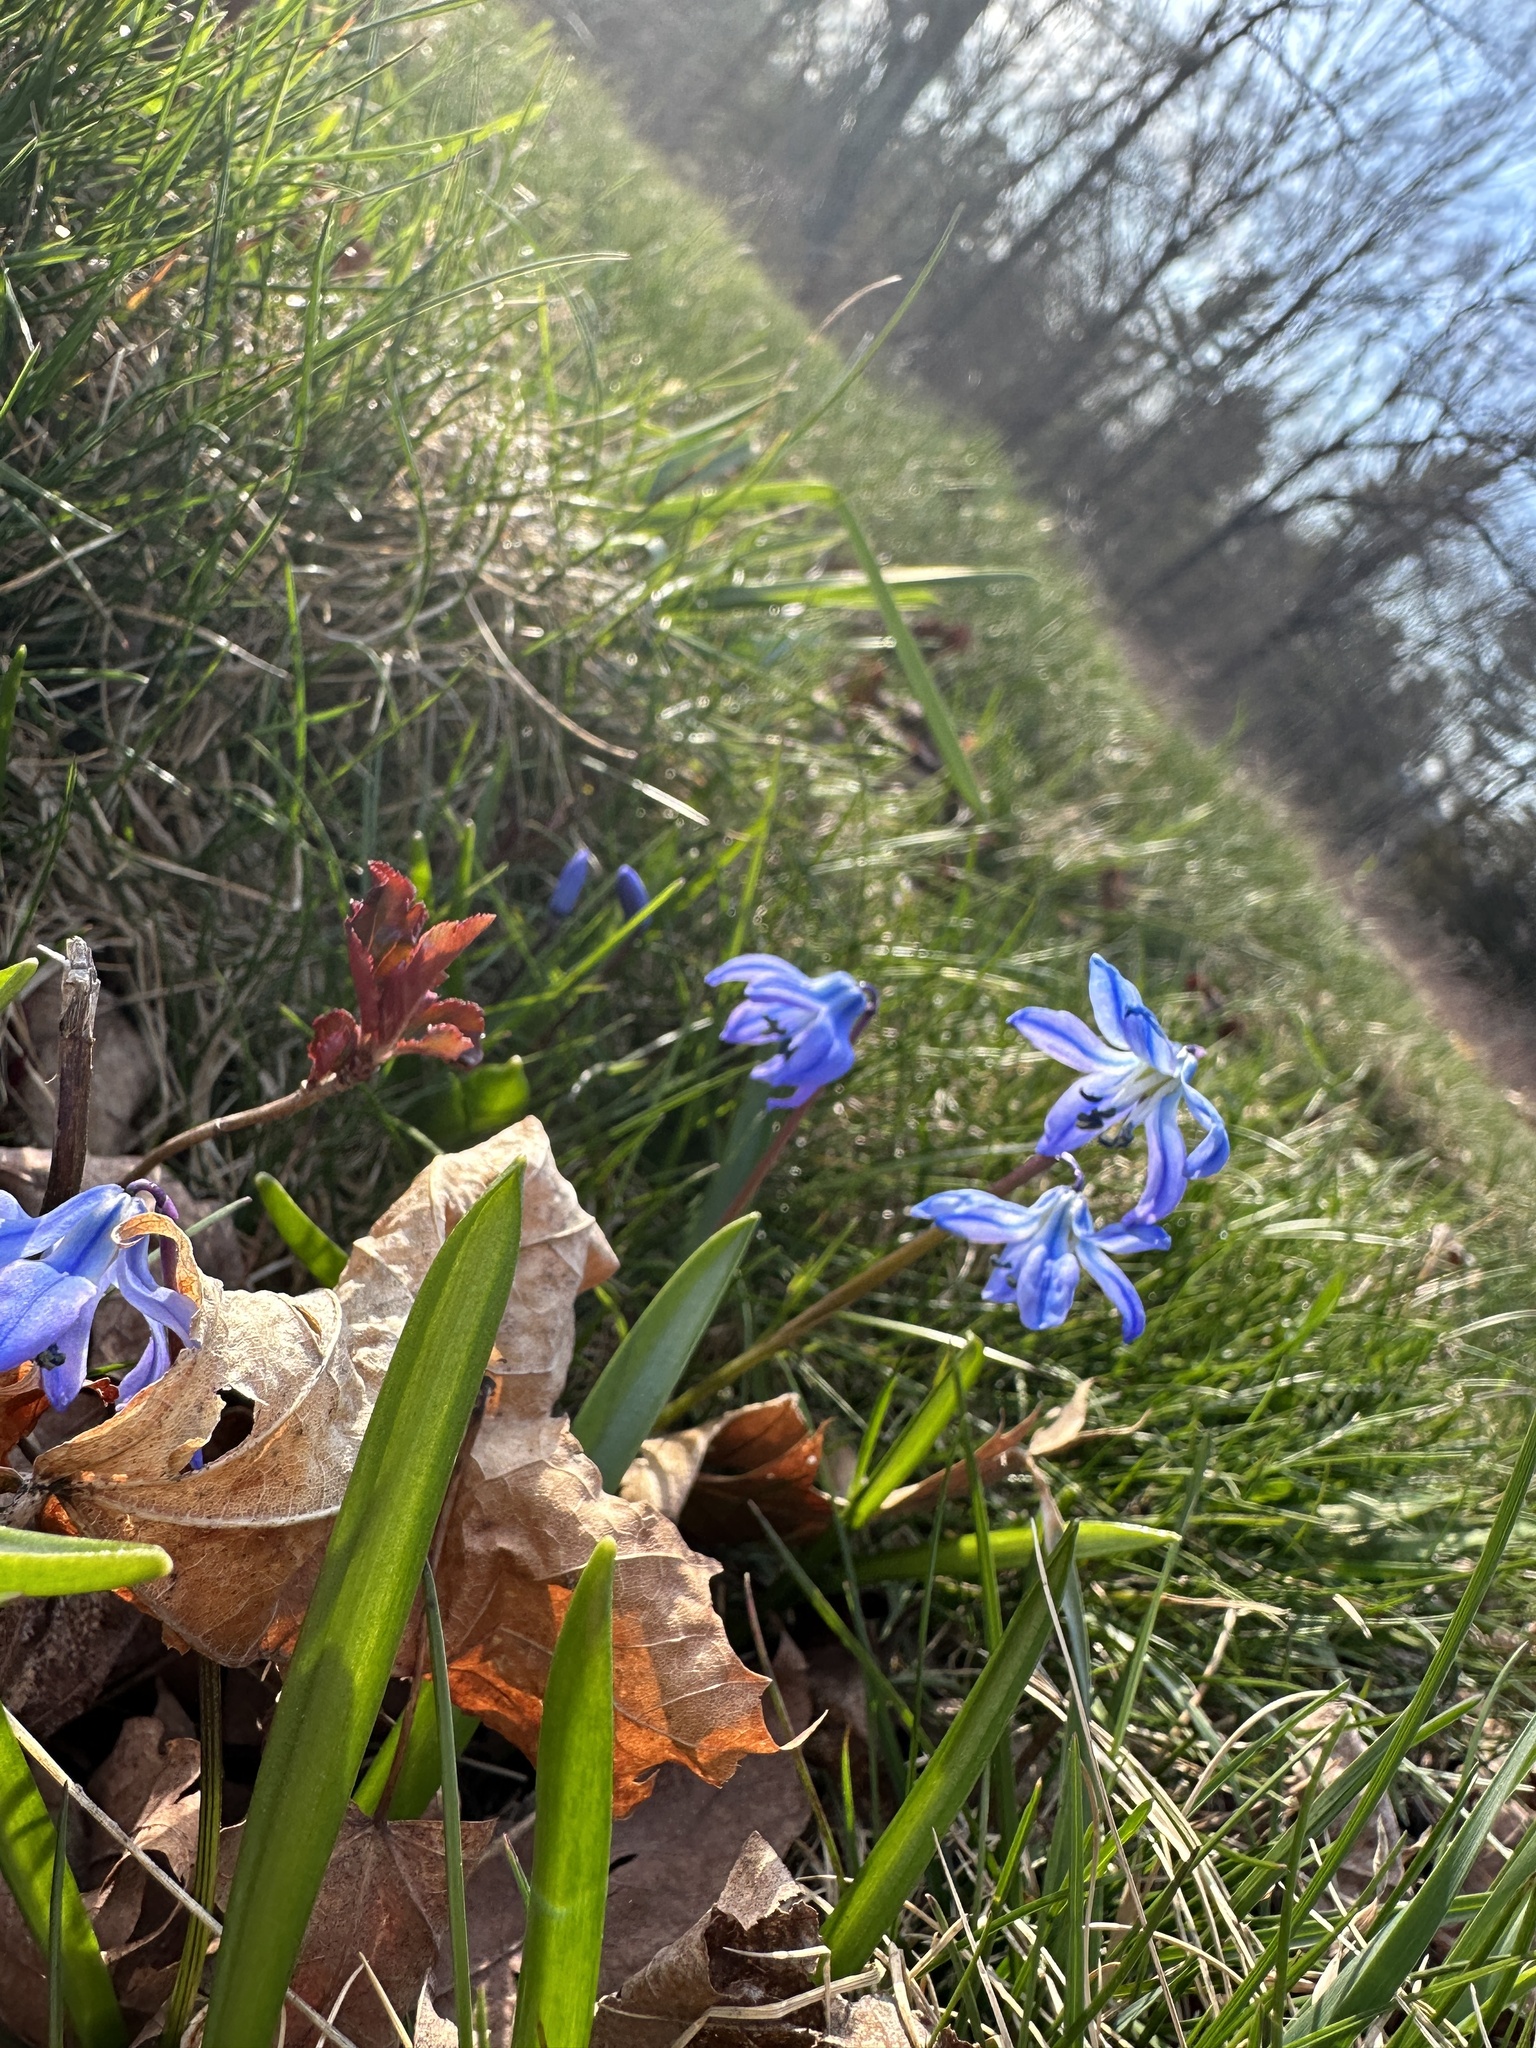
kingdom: Plantae
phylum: Tracheophyta
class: Liliopsida
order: Asparagales
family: Asparagaceae
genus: Scilla
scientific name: Scilla siberica
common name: Siberian squill
